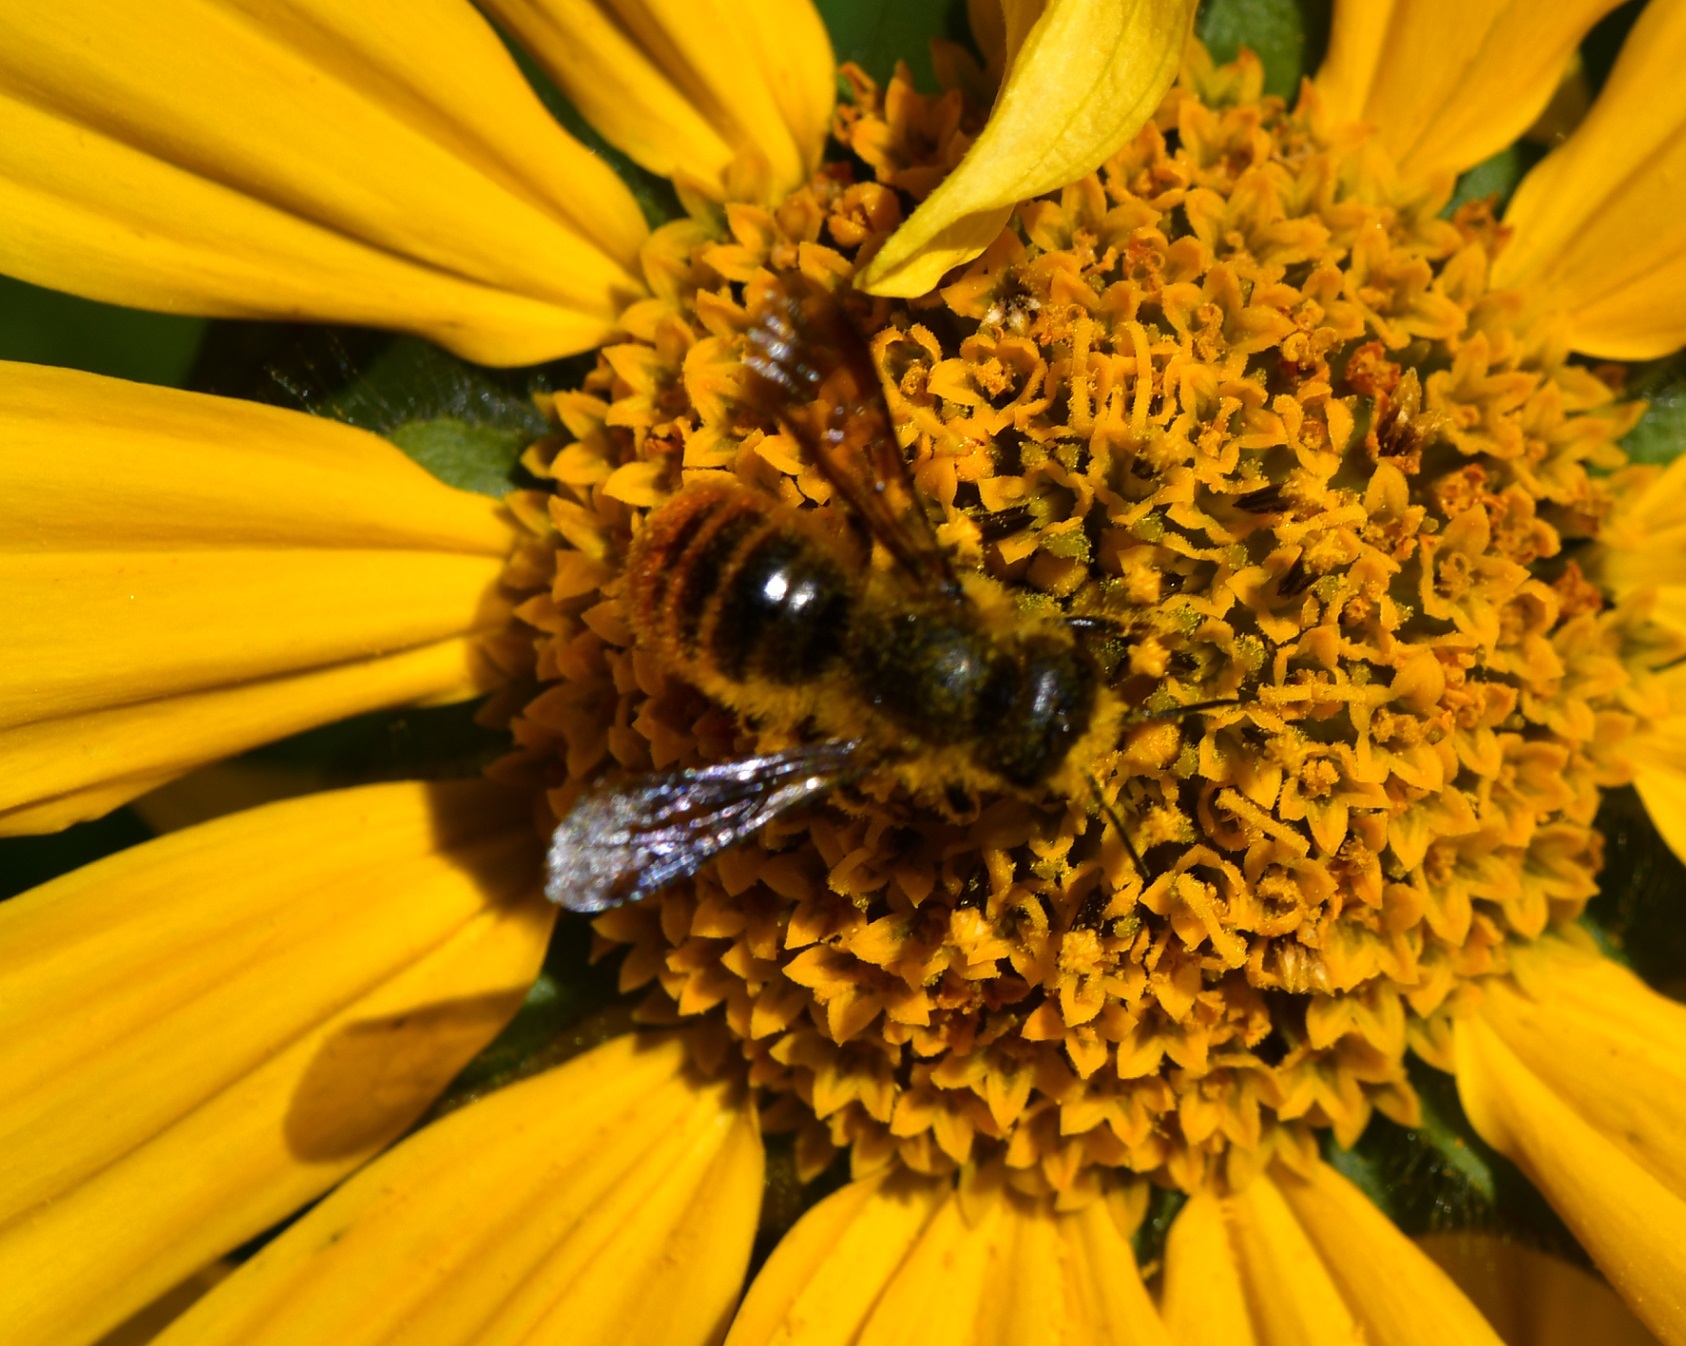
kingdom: Animalia
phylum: Arthropoda
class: Insecta
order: Hymenoptera
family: Megachilidae
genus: Osmia
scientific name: Osmia azteca
